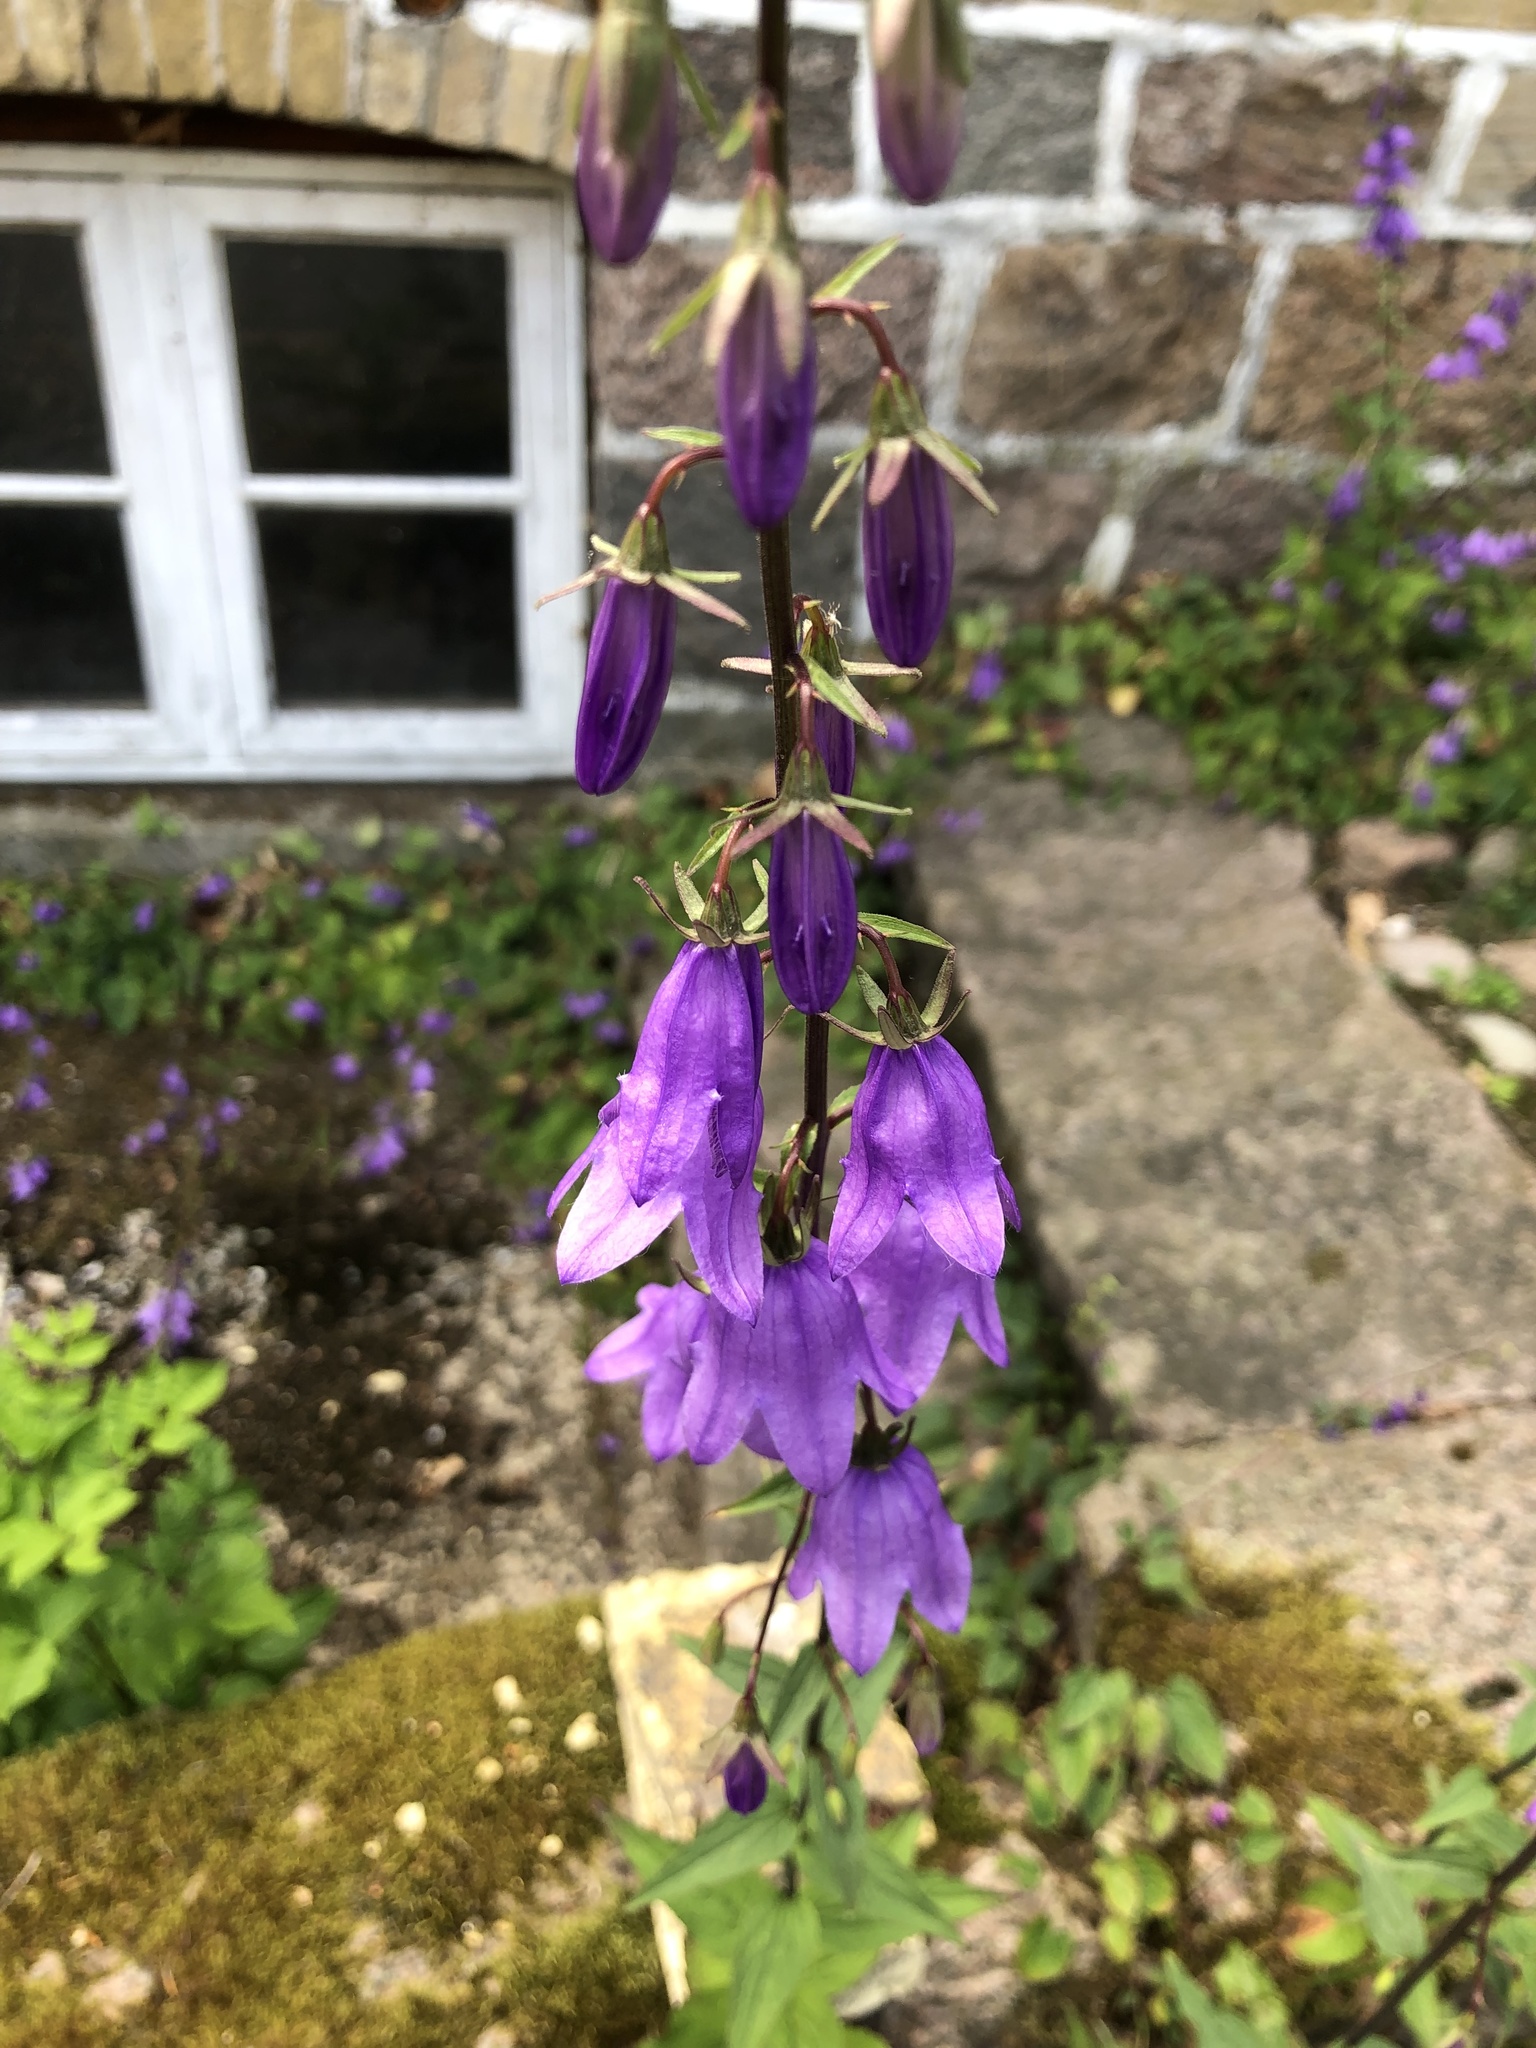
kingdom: Plantae
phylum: Tracheophyta
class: Magnoliopsida
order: Asterales
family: Campanulaceae
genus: Campanula
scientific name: Campanula rapunculoides
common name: Creeping bellflower
